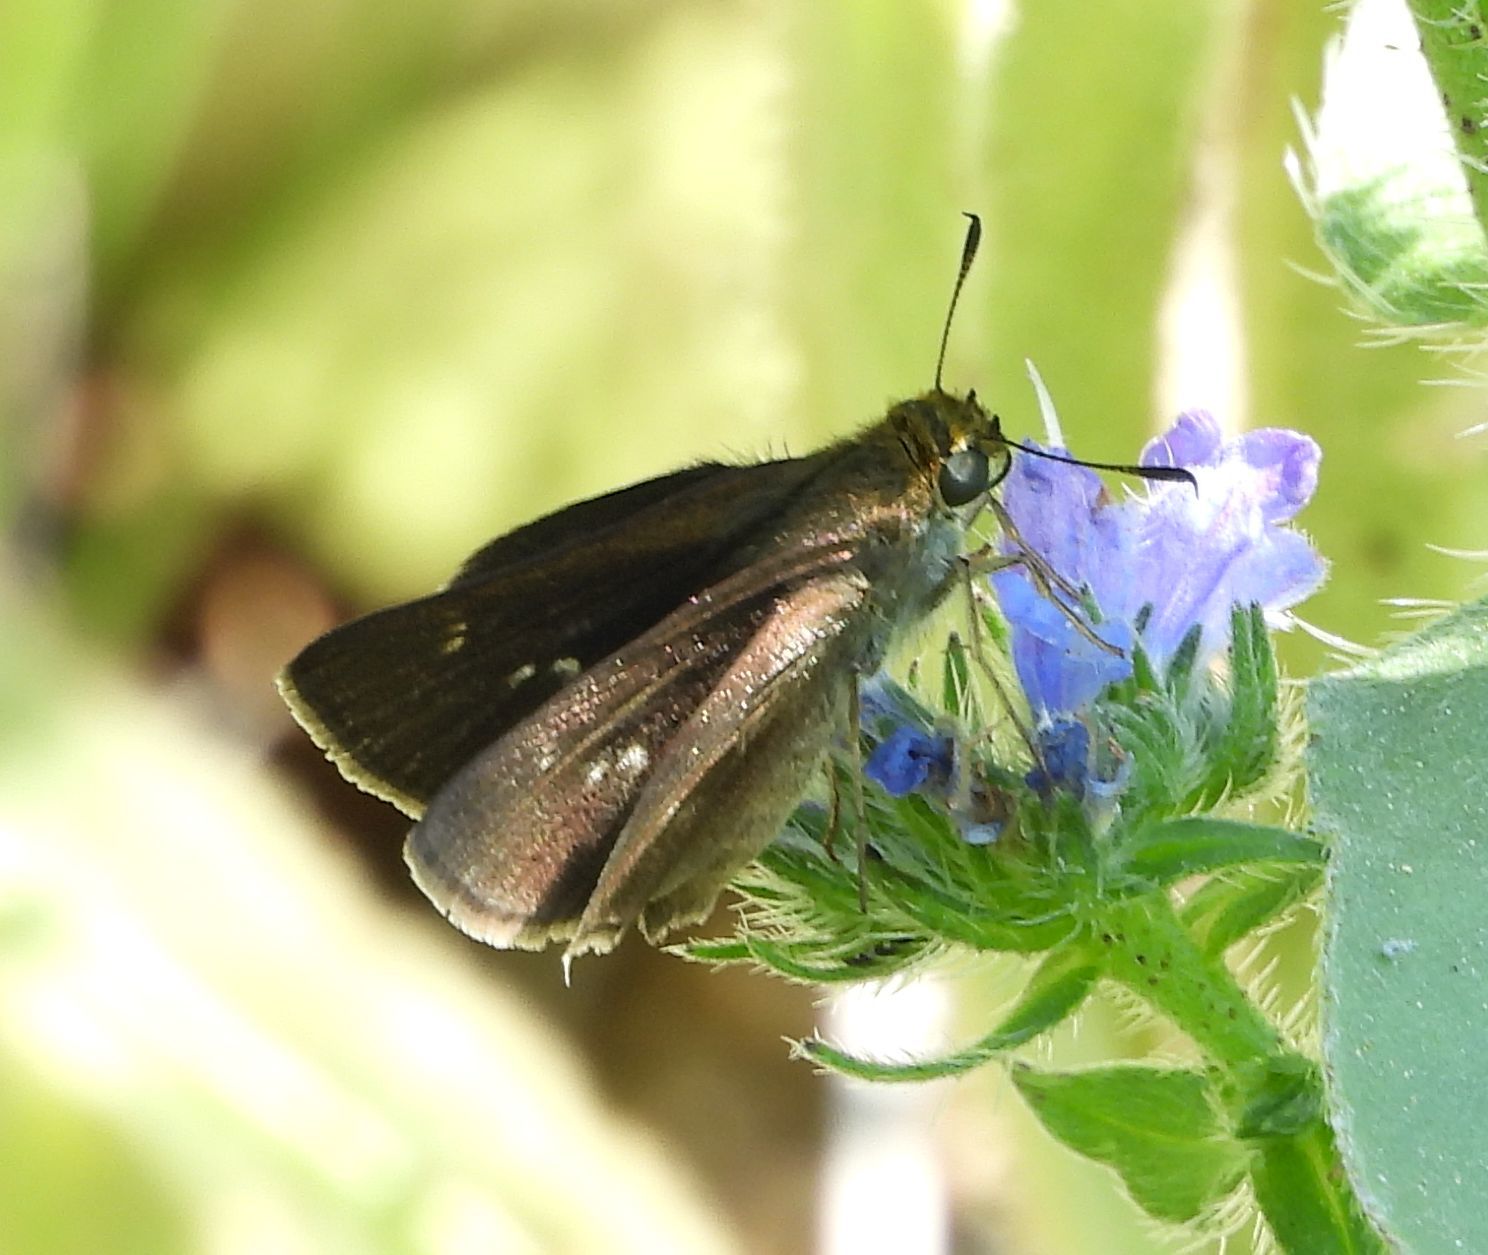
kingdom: Animalia
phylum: Arthropoda
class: Insecta
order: Lepidoptera
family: Hesperiidae
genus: Euphyes
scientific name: Euphyes vestris
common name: Dun skipper
